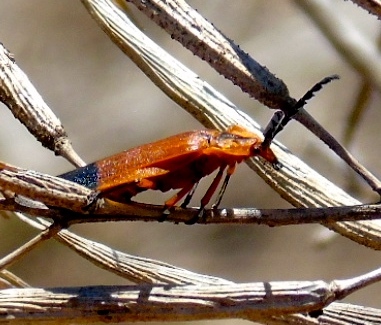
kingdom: Animalia
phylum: Arthropoda
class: Insecta
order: Coleoptera
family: Lycidae
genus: Lycus
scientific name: Lycus
